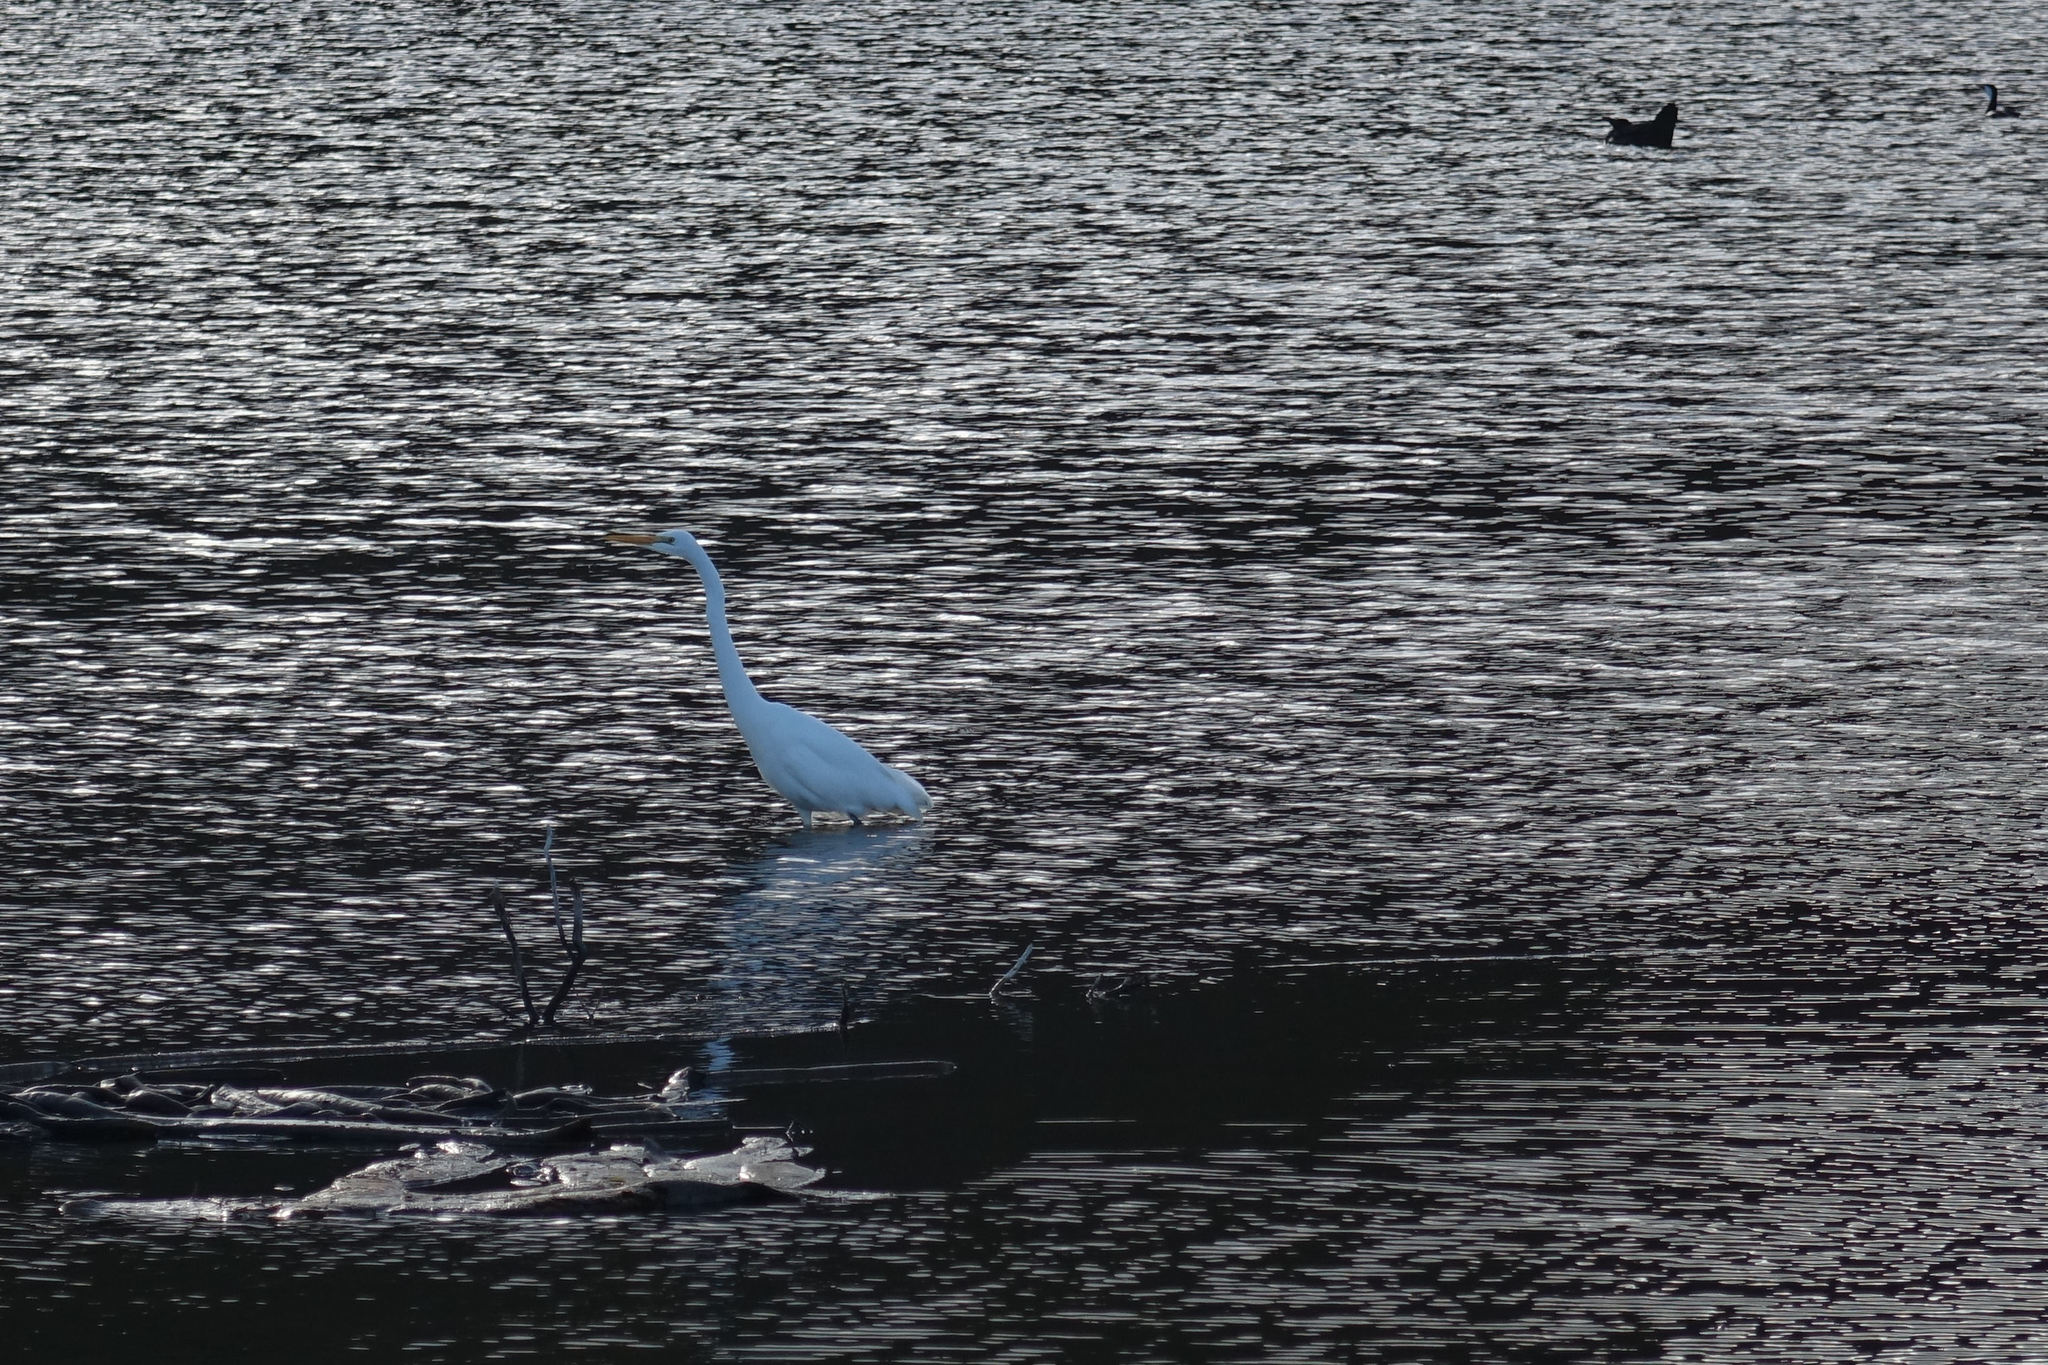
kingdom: Animalia
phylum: Chordata
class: Aves
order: Pelecaniformes
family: Ardeidae
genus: Ardea
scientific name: Ardea modesta
